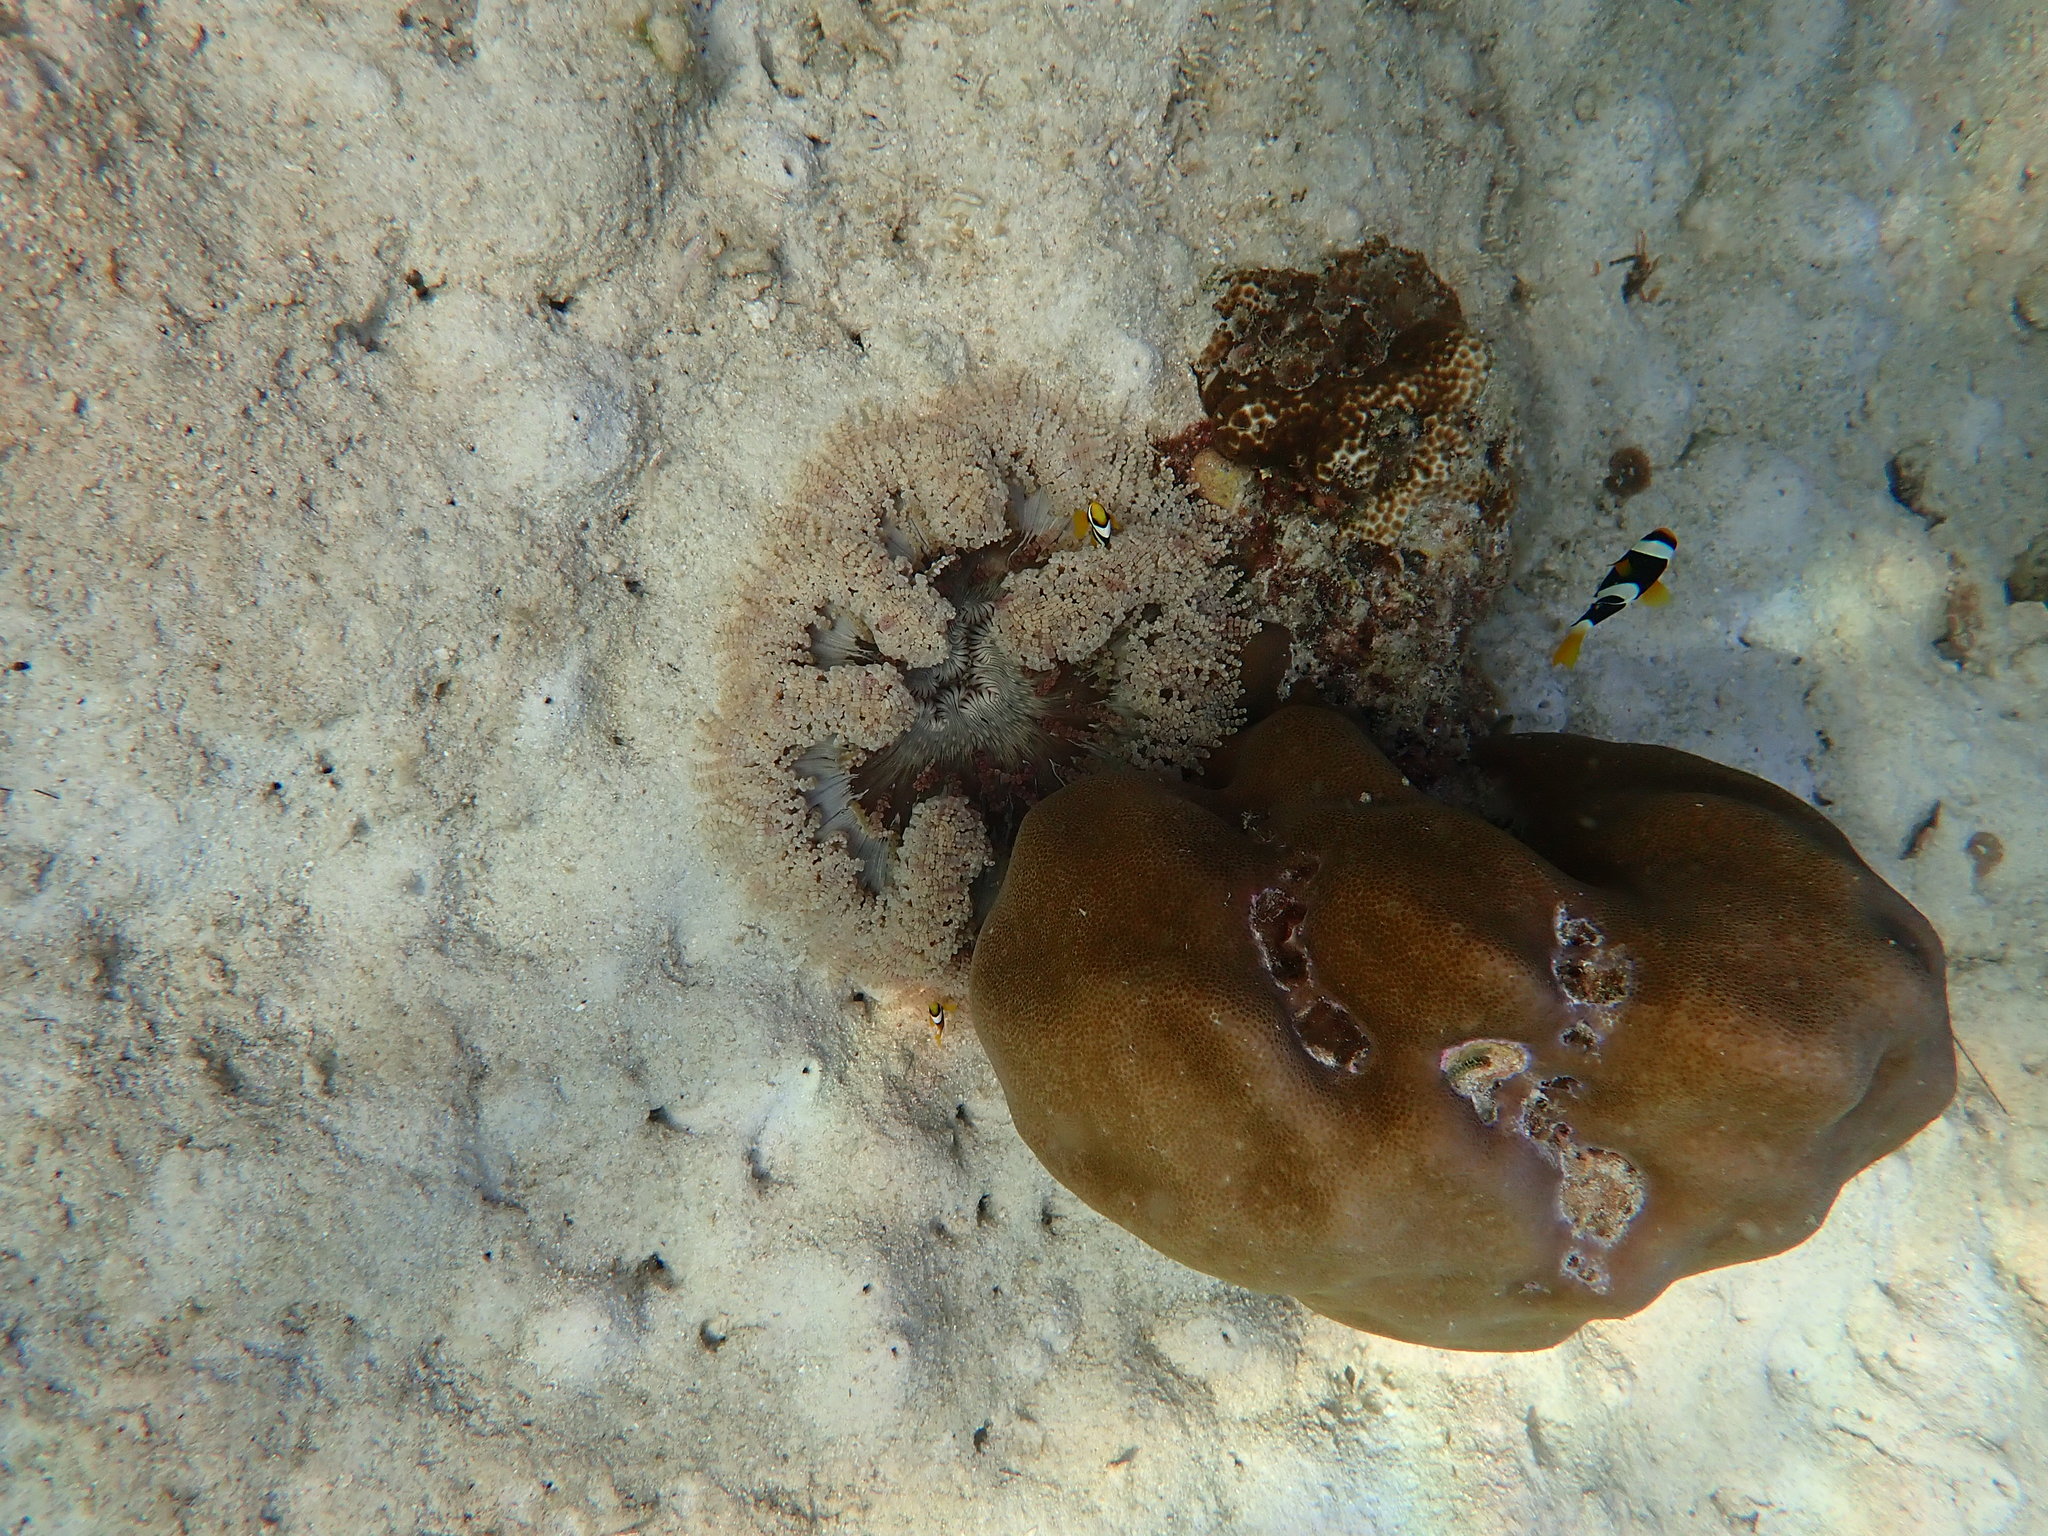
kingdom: Animalia
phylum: Chordata
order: Perciformes
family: Pomacentridae
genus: Amphiprion
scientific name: Amphiprion clarkii
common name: Clark's anemonefish
